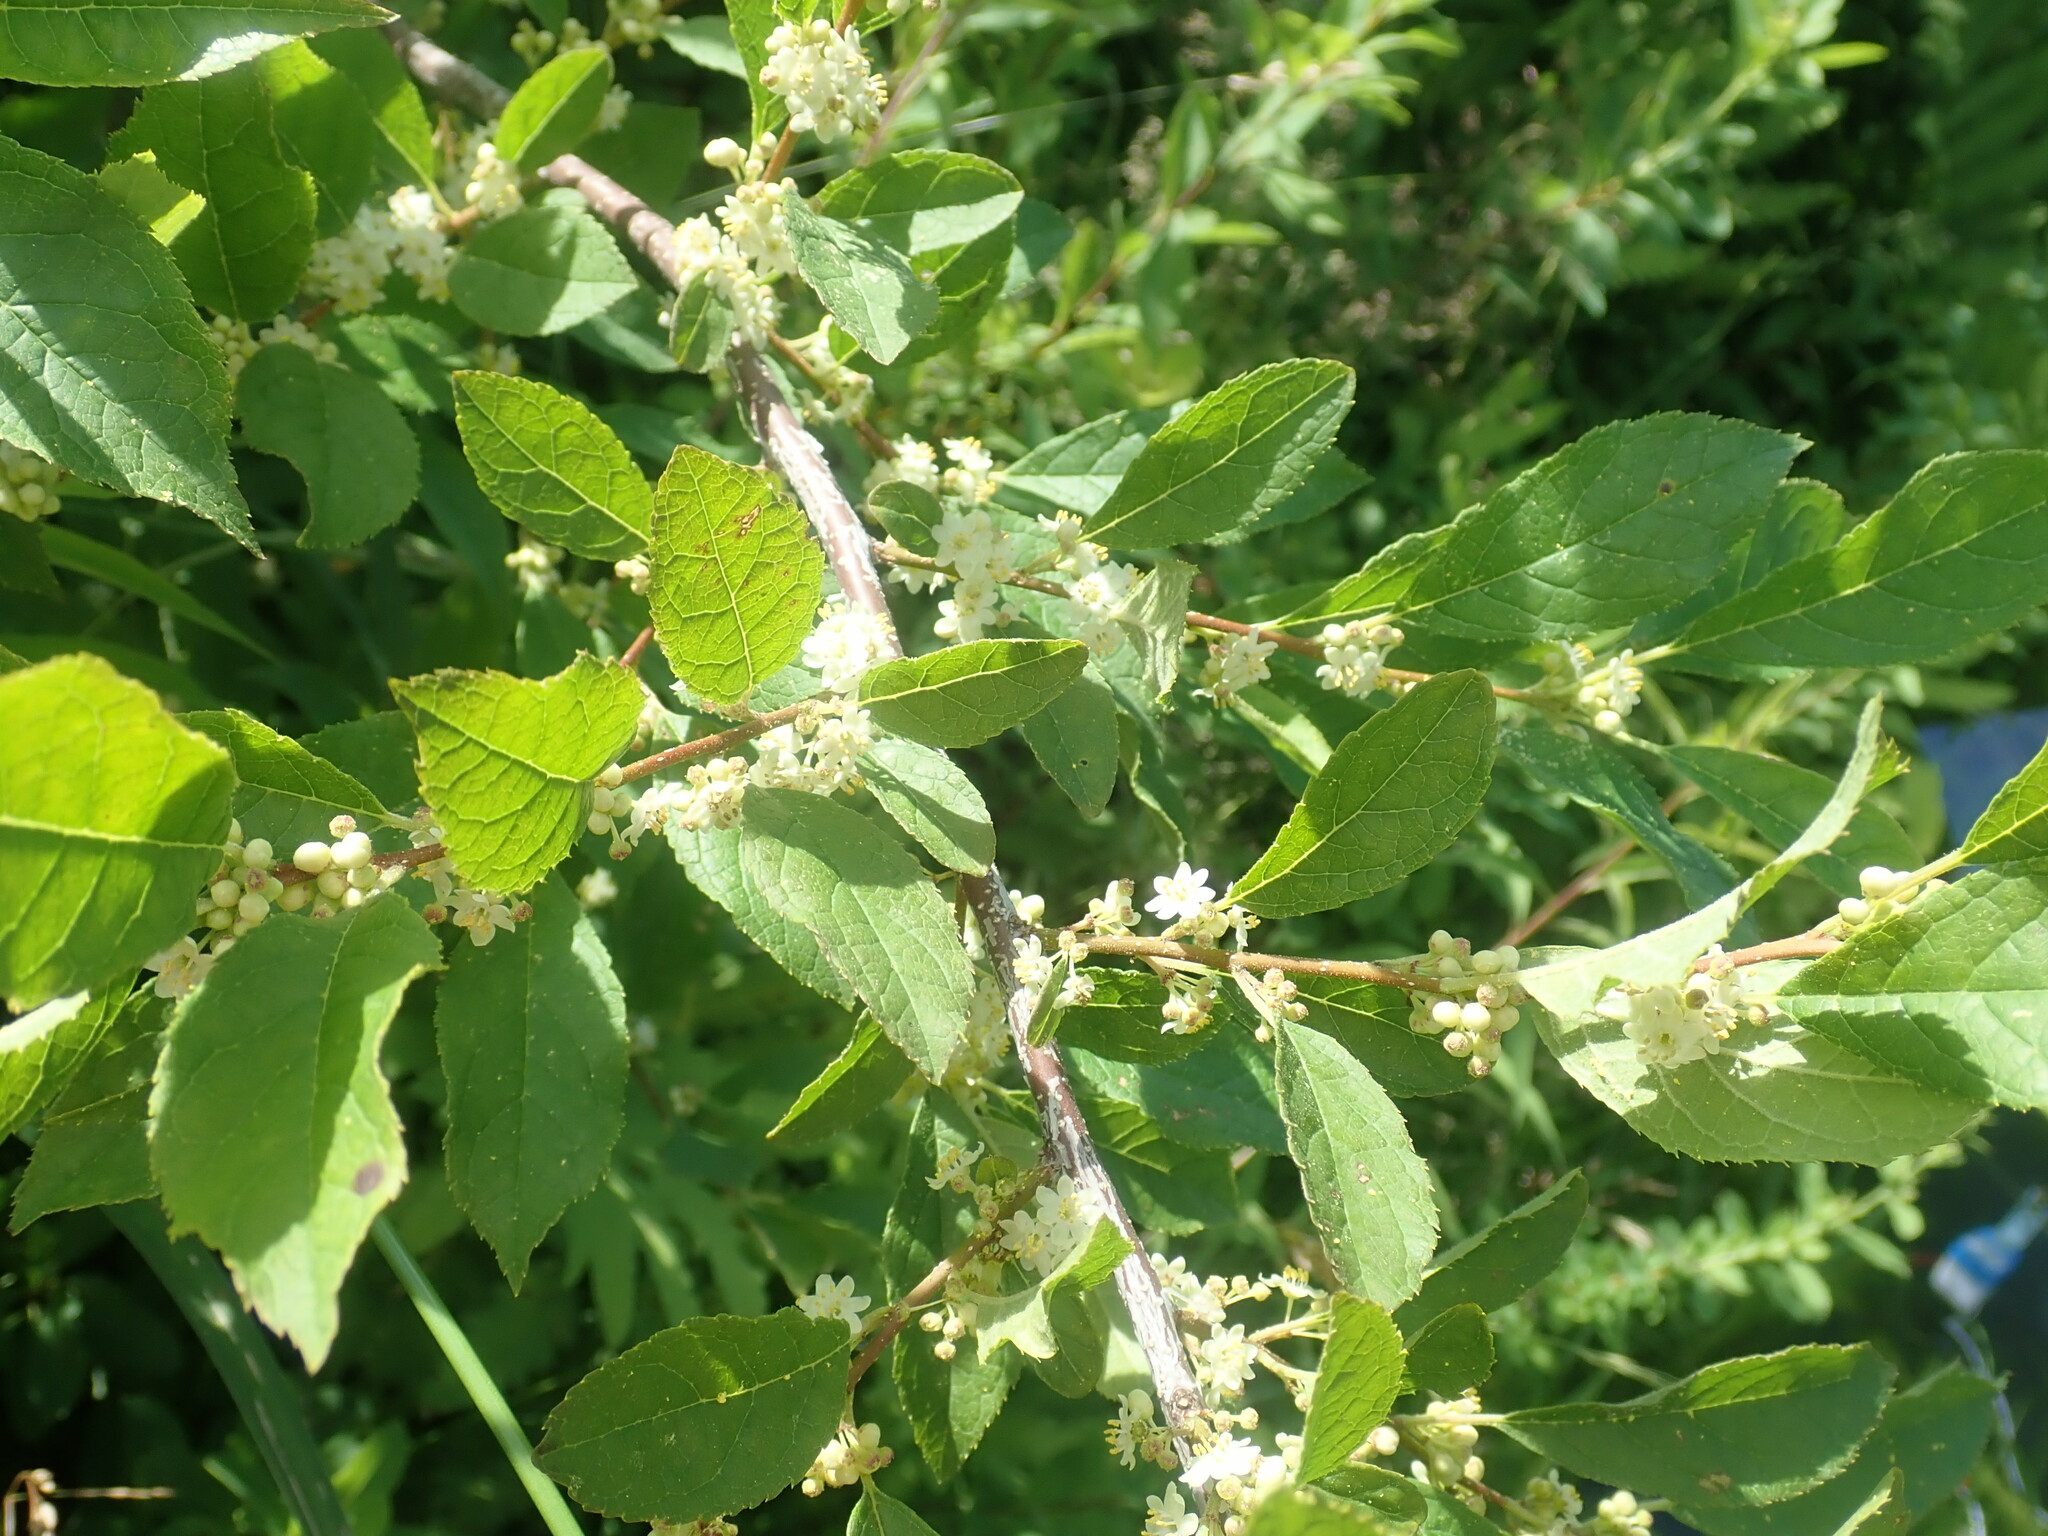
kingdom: Plantae
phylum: Tracheophyta
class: Magnoliopsida
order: Aquifoliales
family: Aquifoliaceae
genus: Ilex
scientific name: Ilex verticillata
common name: Virginia winterberry
